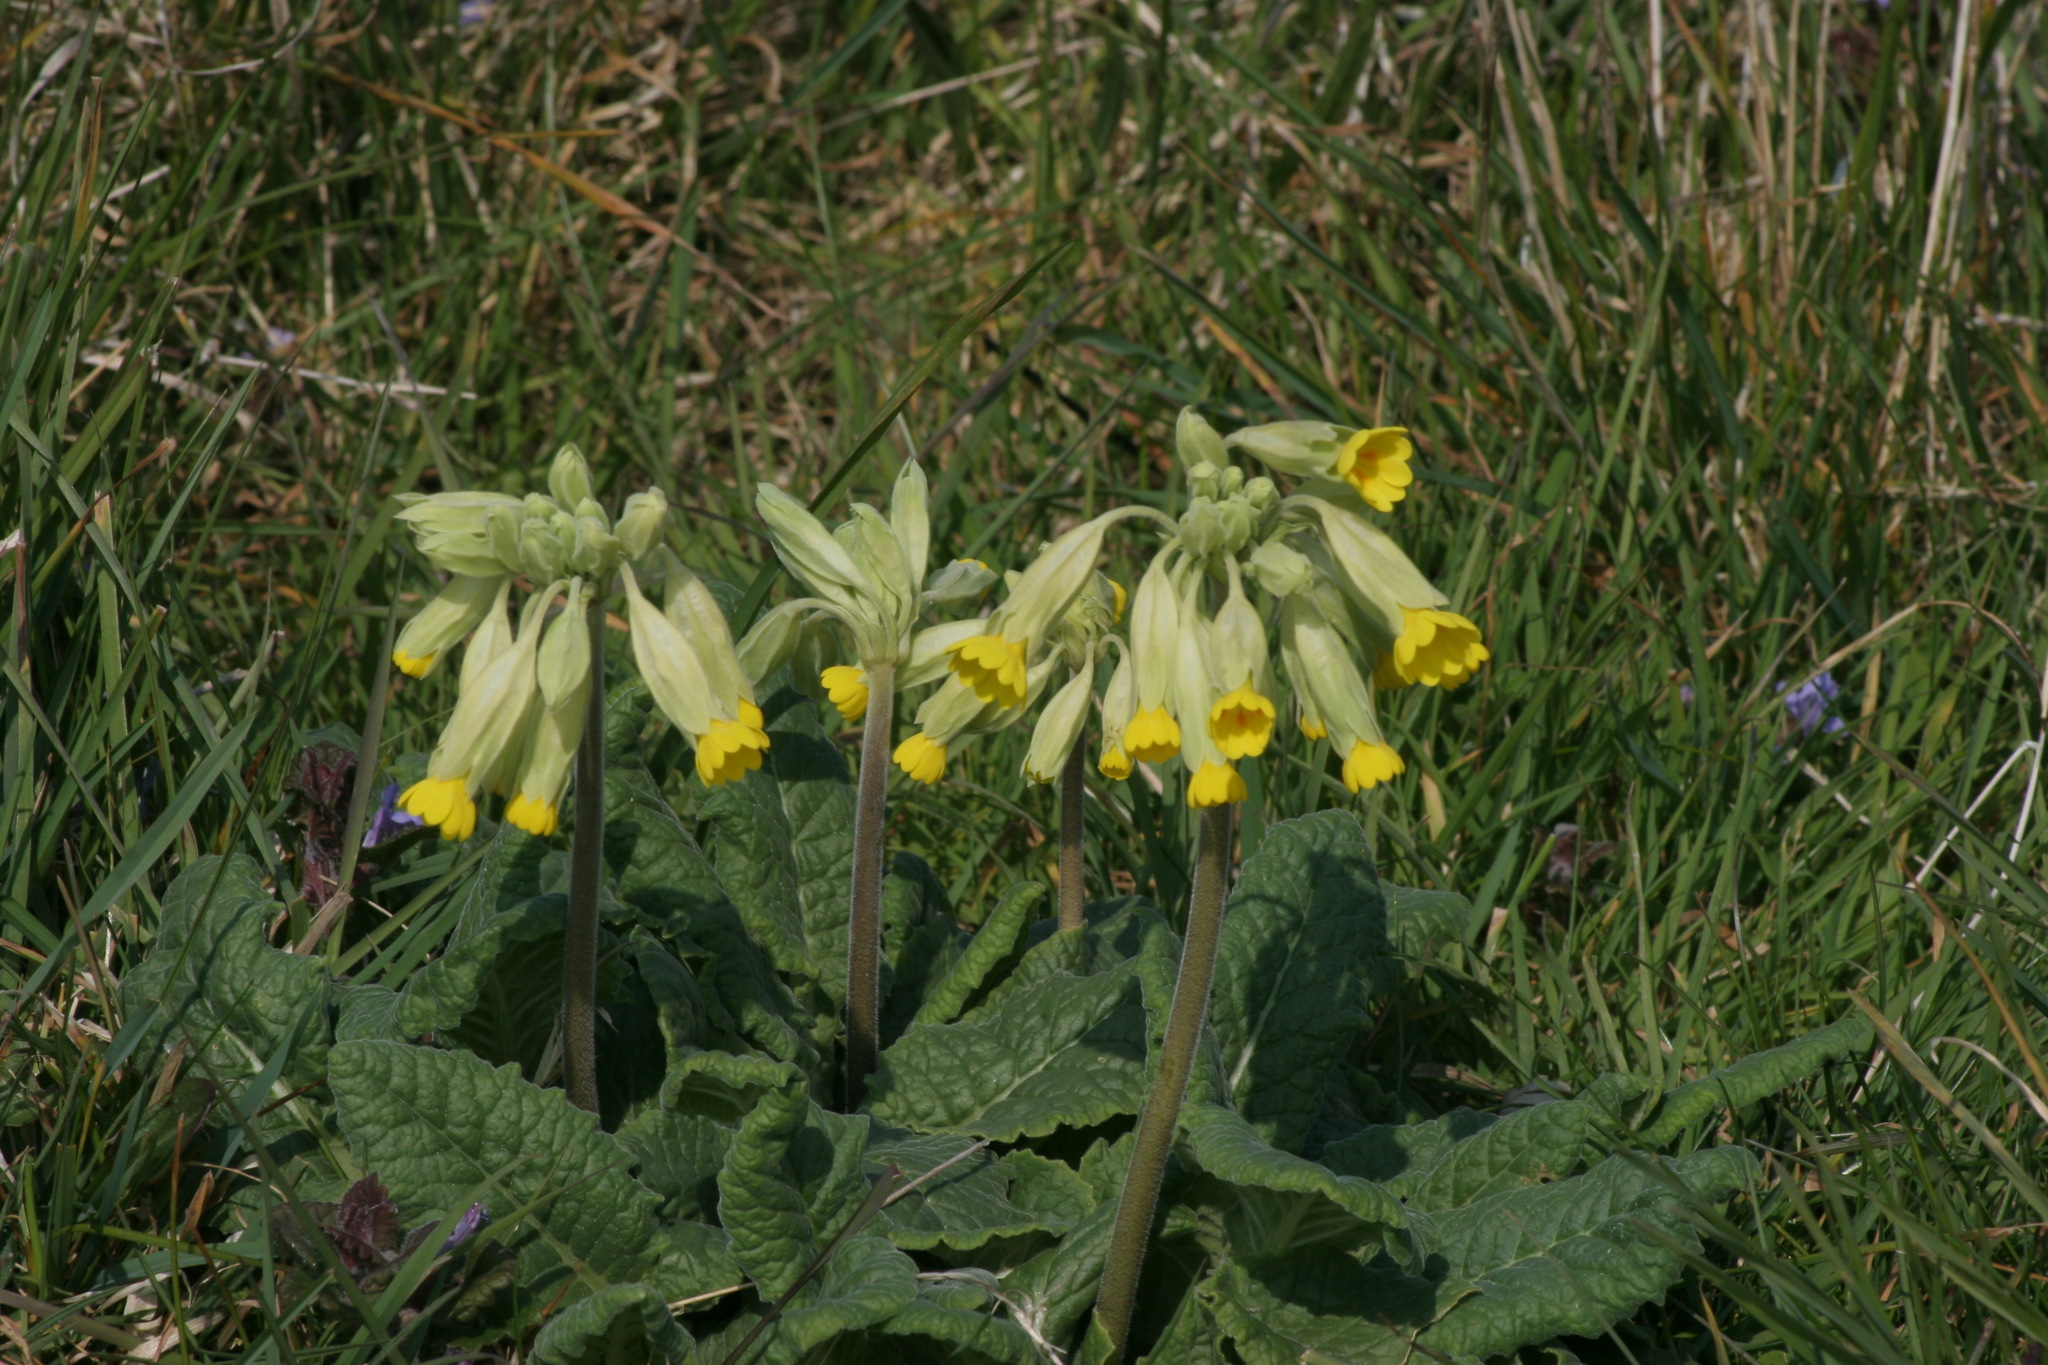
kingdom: Plantae
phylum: Tracheophyta
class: Magnoliopsida
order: Ericales
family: Primulaceae
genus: Primula
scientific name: Primula veris
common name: Cowslip
